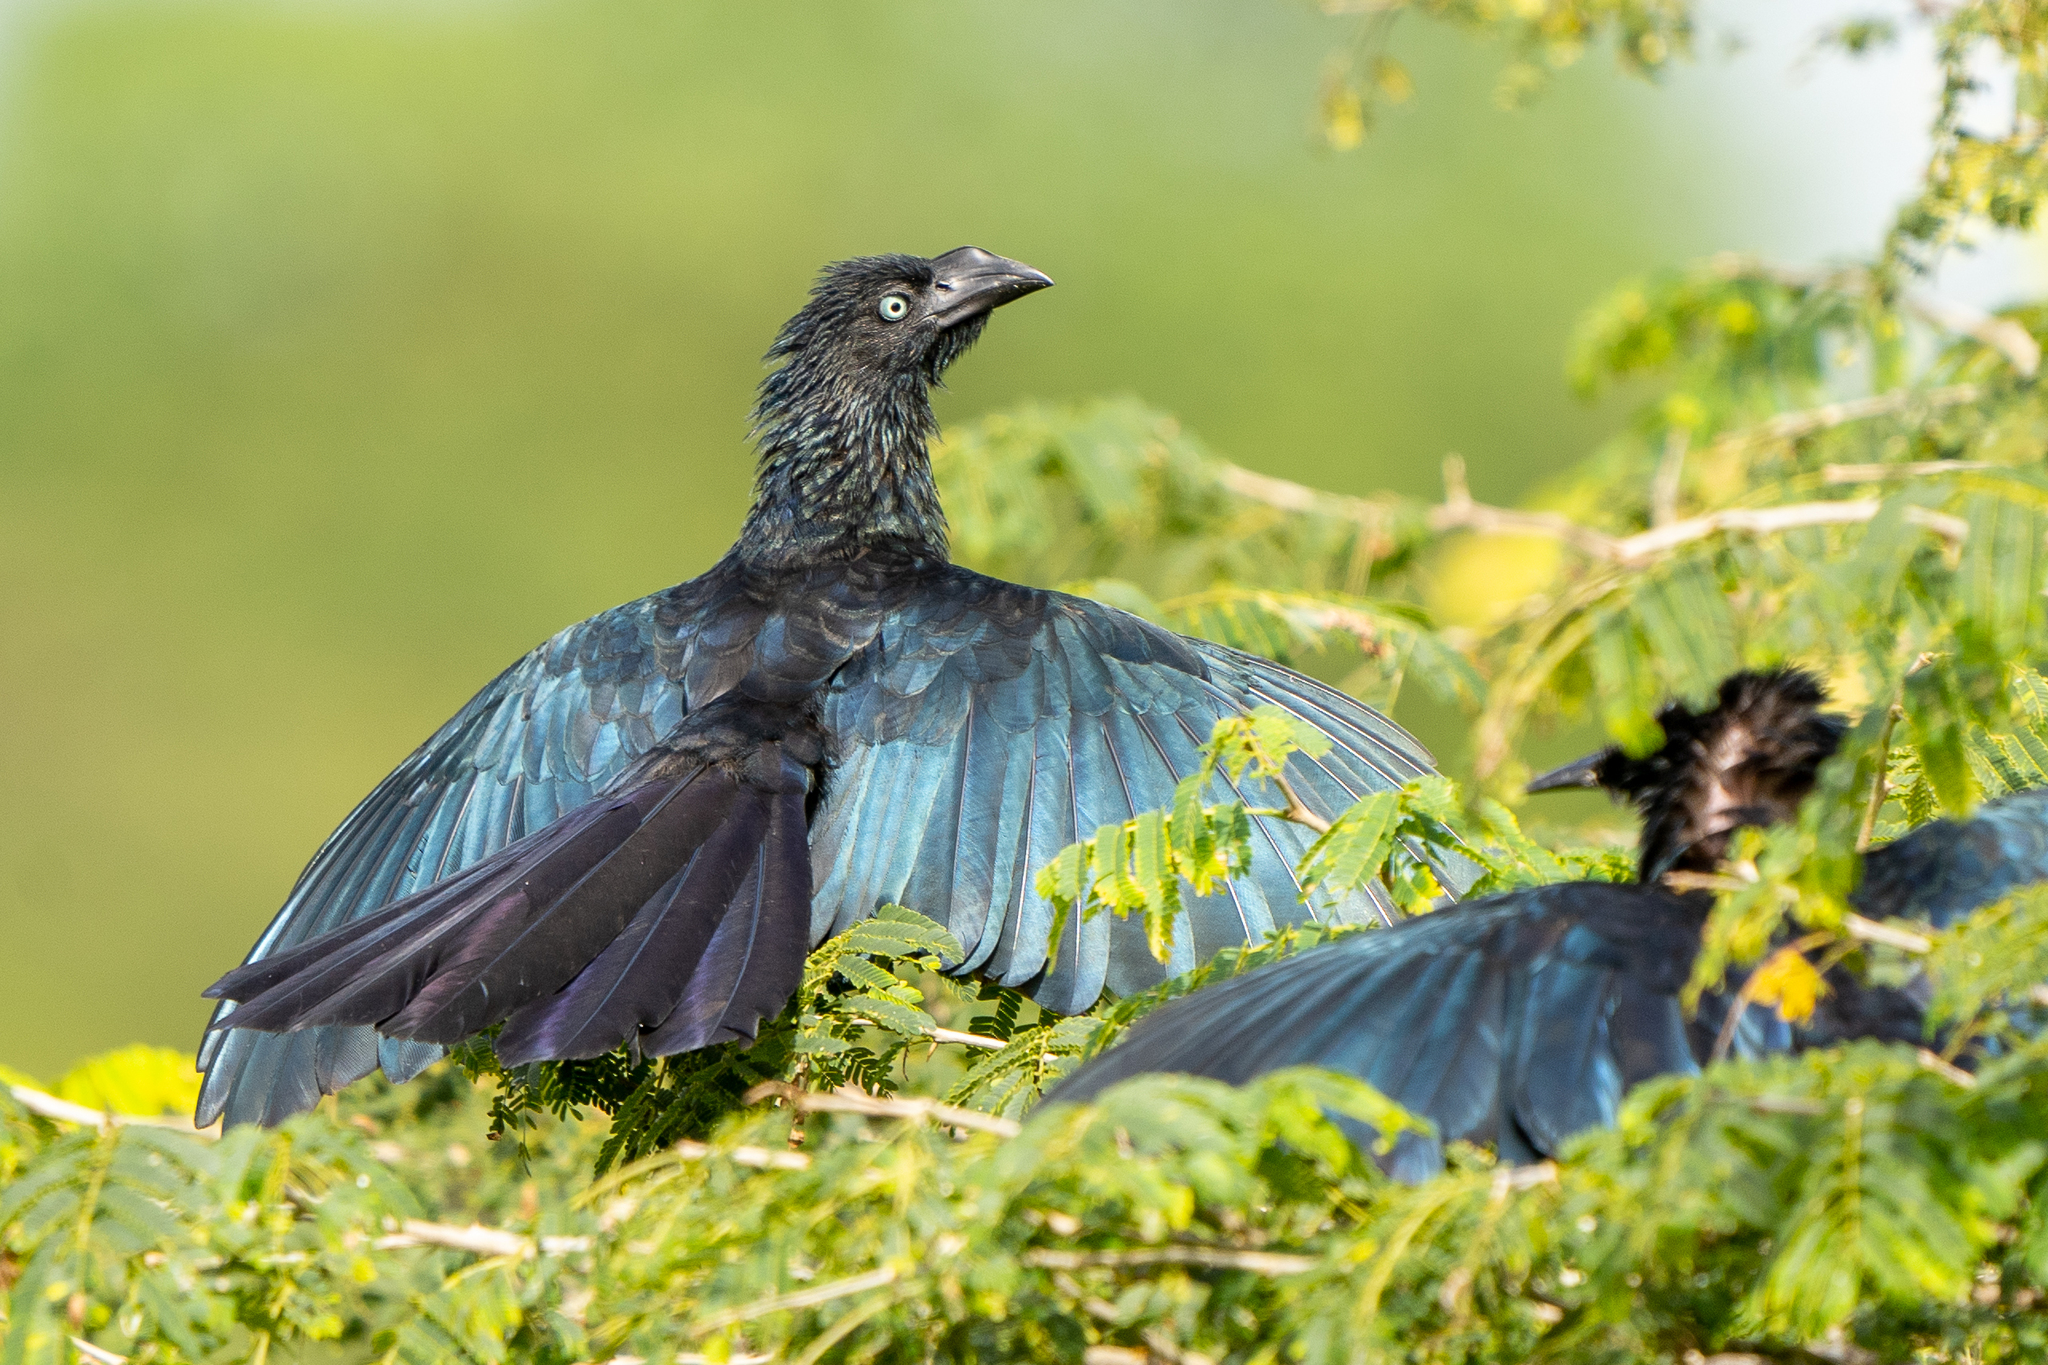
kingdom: Animalia
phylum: Chordata
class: Aves
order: Cuculiformes
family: Cuculidae
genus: Crotophaga
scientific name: Crotophaga major
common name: Greater ani
